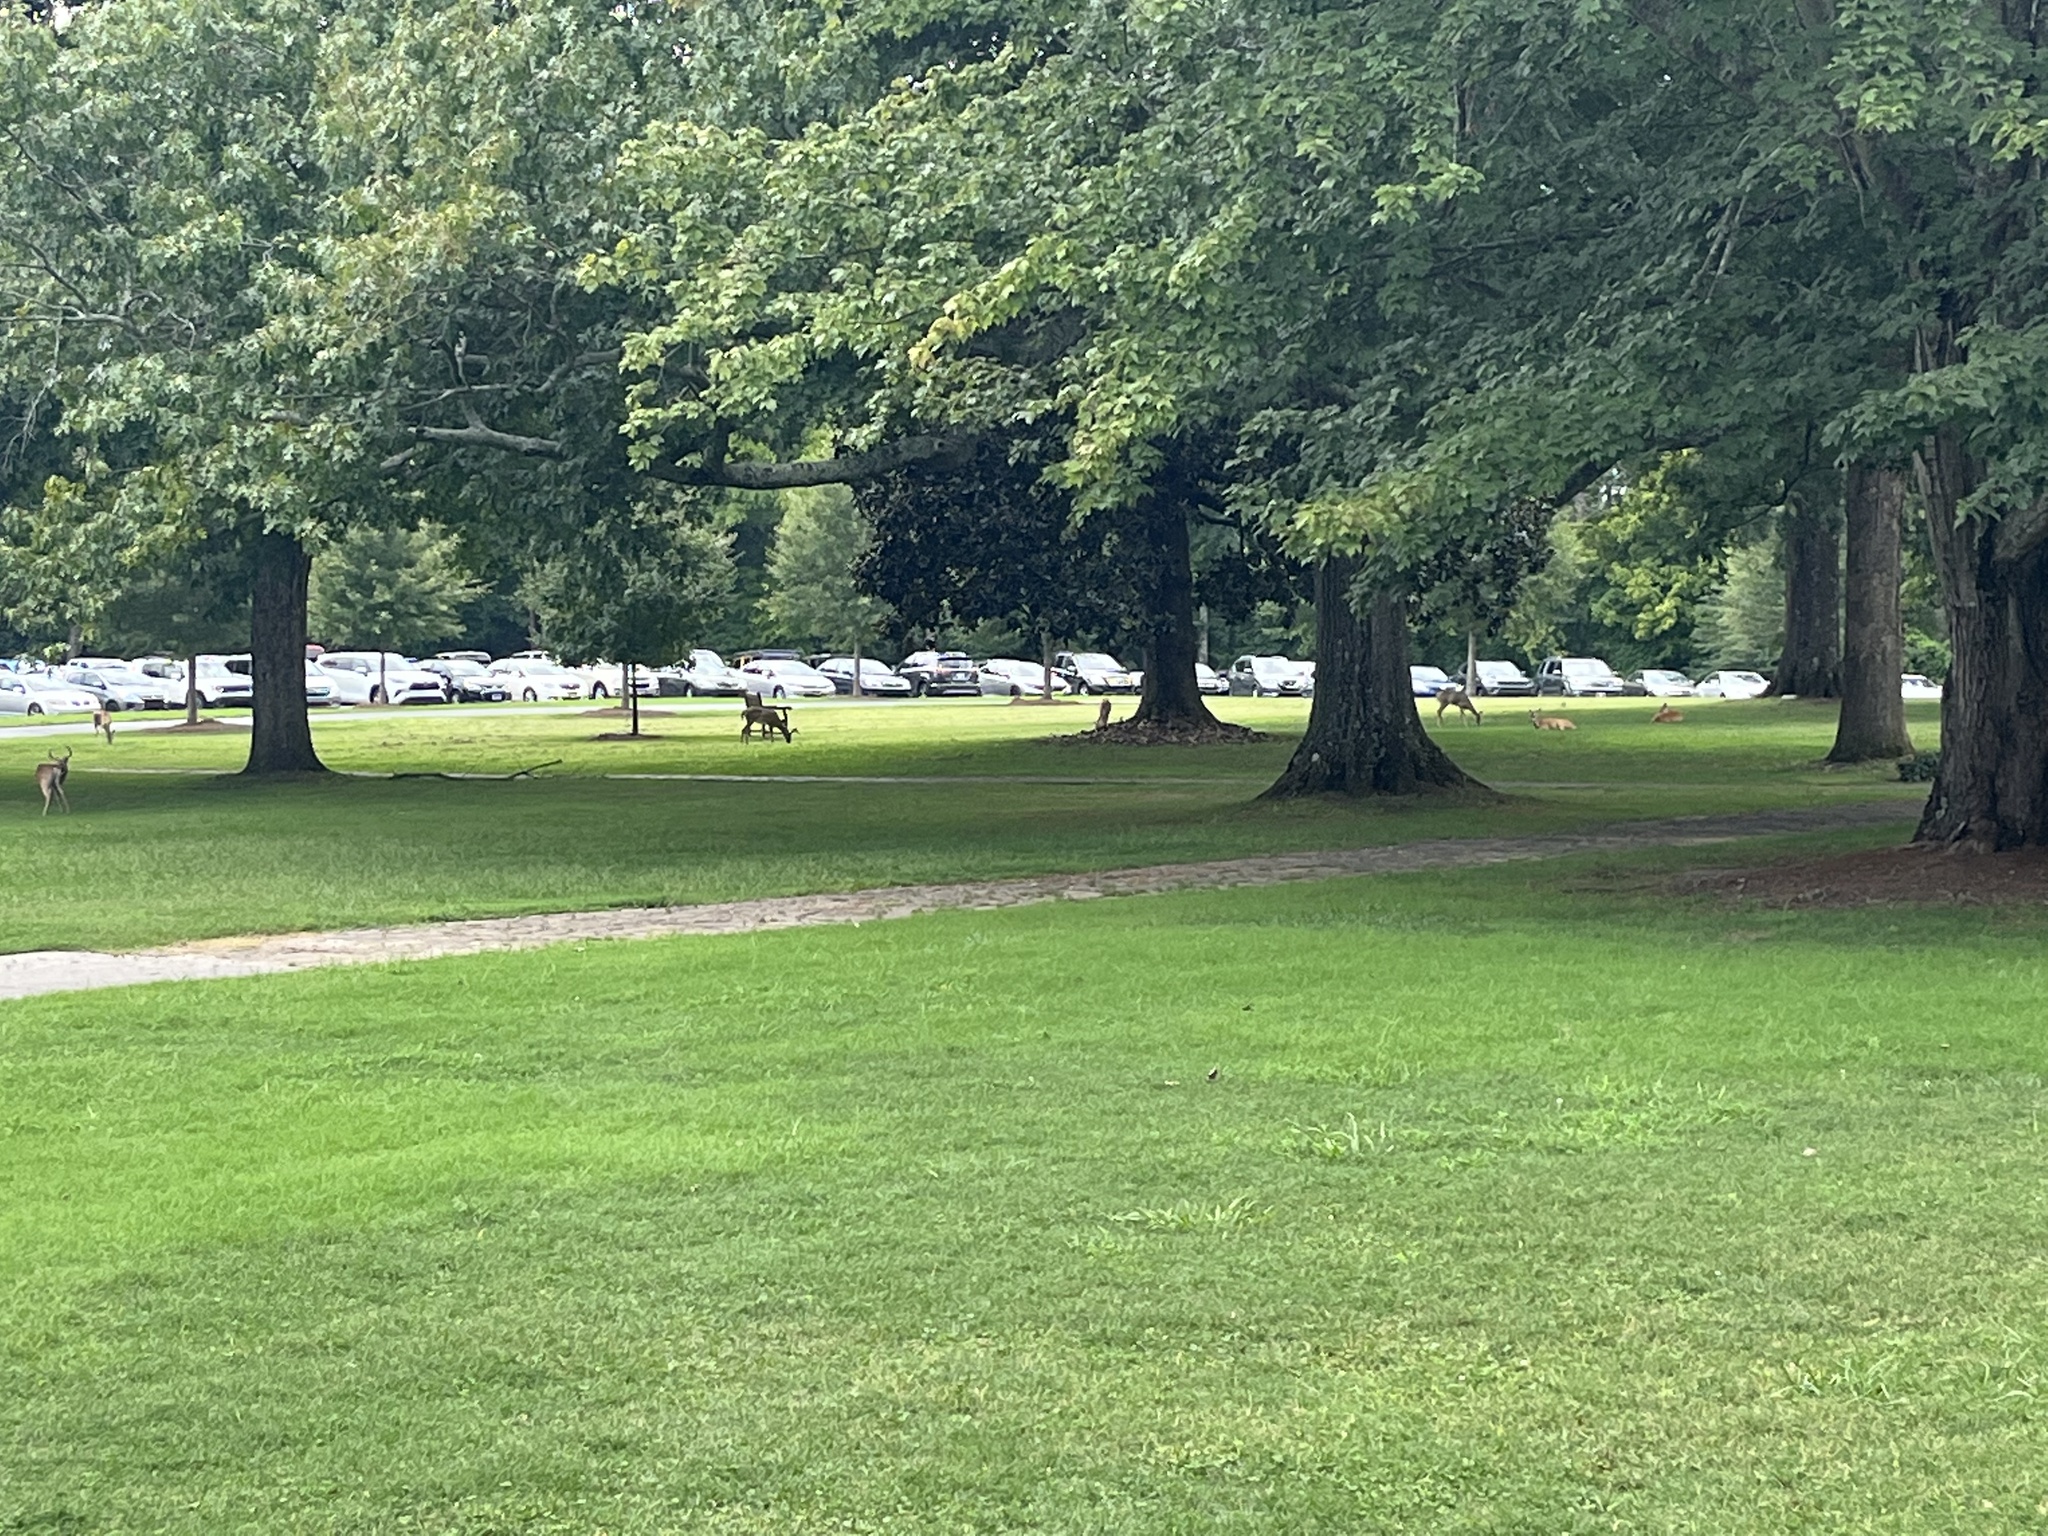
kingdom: Animalia
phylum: Chordata
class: Mammalia
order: Artiodactyla
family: Cervidae
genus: Odocoileus
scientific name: Odocoileus virginianus
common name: White-tailed deer
